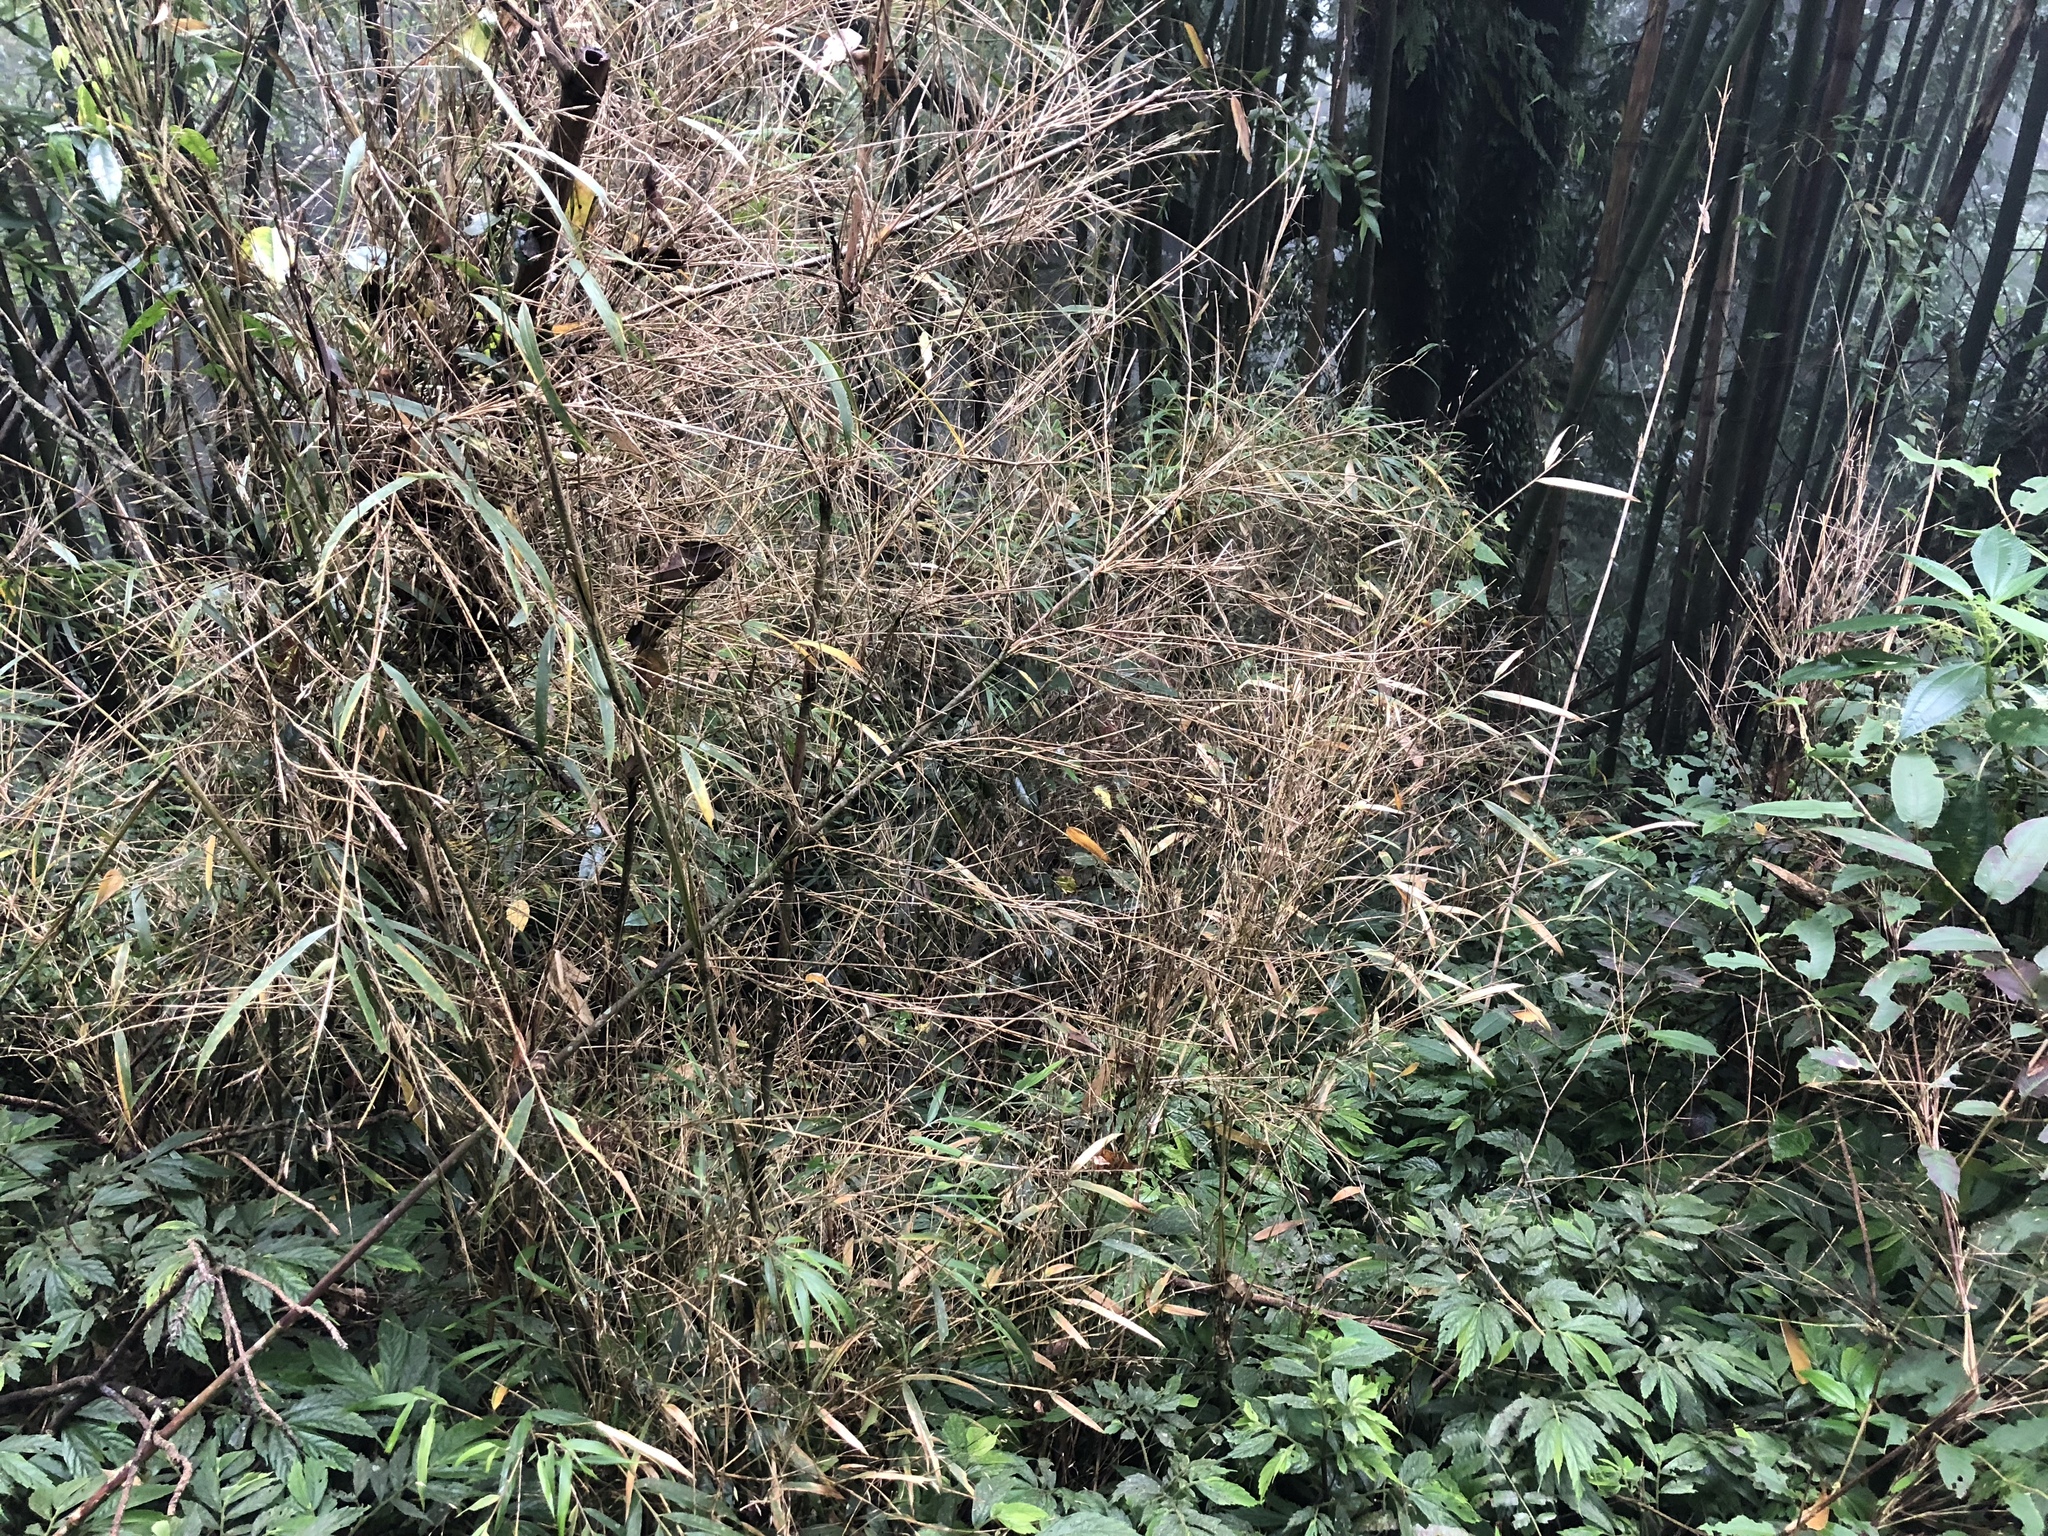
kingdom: Plantae
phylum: Tracheophyta
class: Liliopsida
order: Poales
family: Poaceae
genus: Yushania
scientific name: Yushania niitakayamensis
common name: Yushan cane
